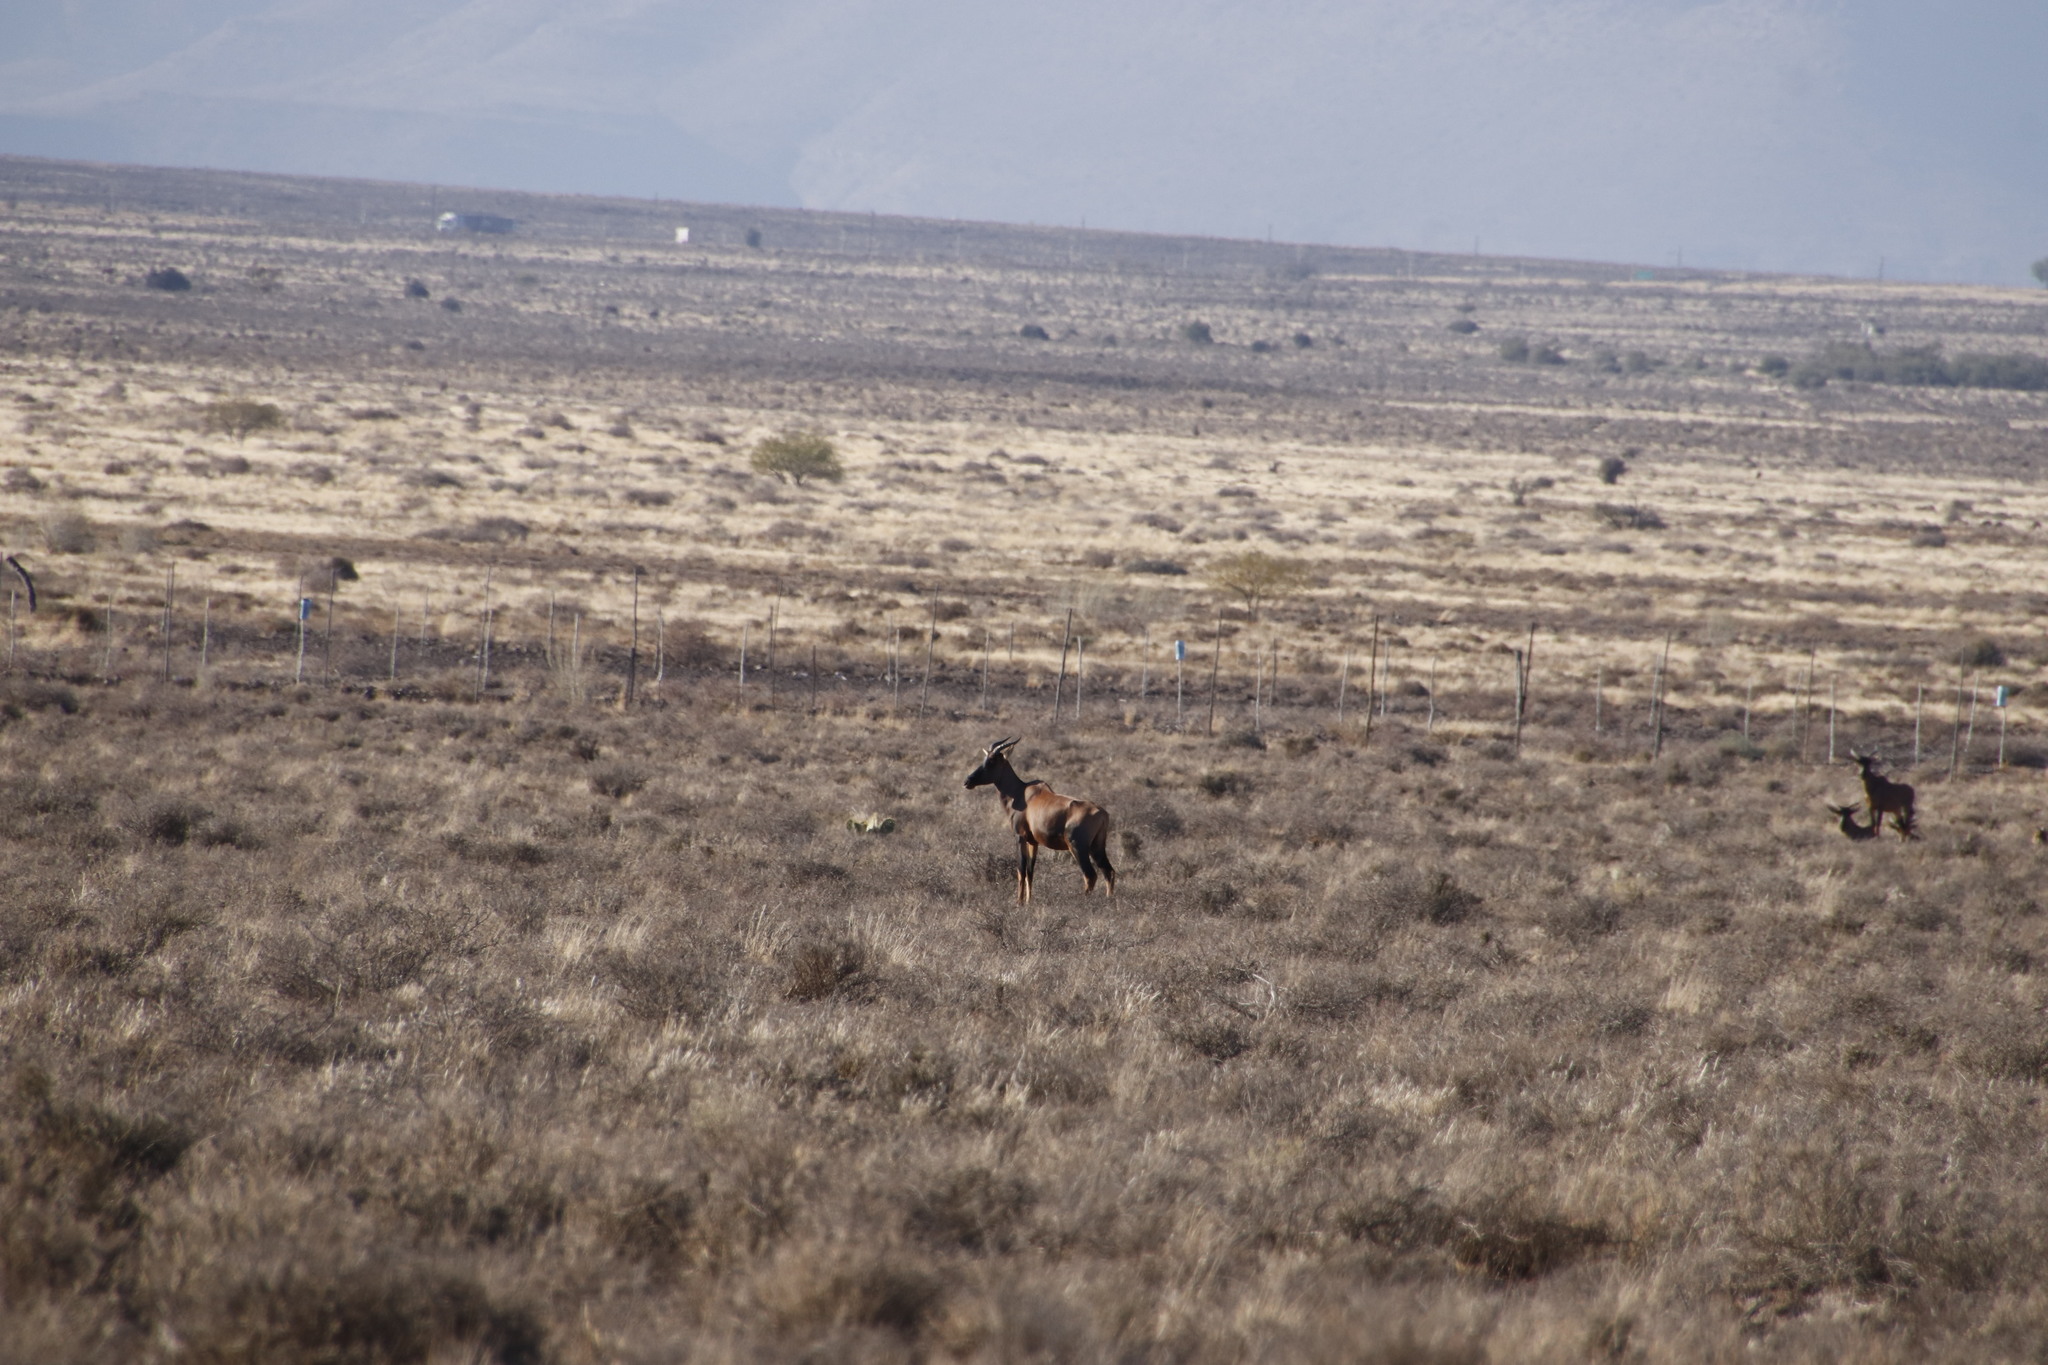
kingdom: Animalia
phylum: Chordata
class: Mammalia
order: Artiodactyla
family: Bovidae
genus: Damaliscus
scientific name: Damaliscus lunatus
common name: Common tsessebe
